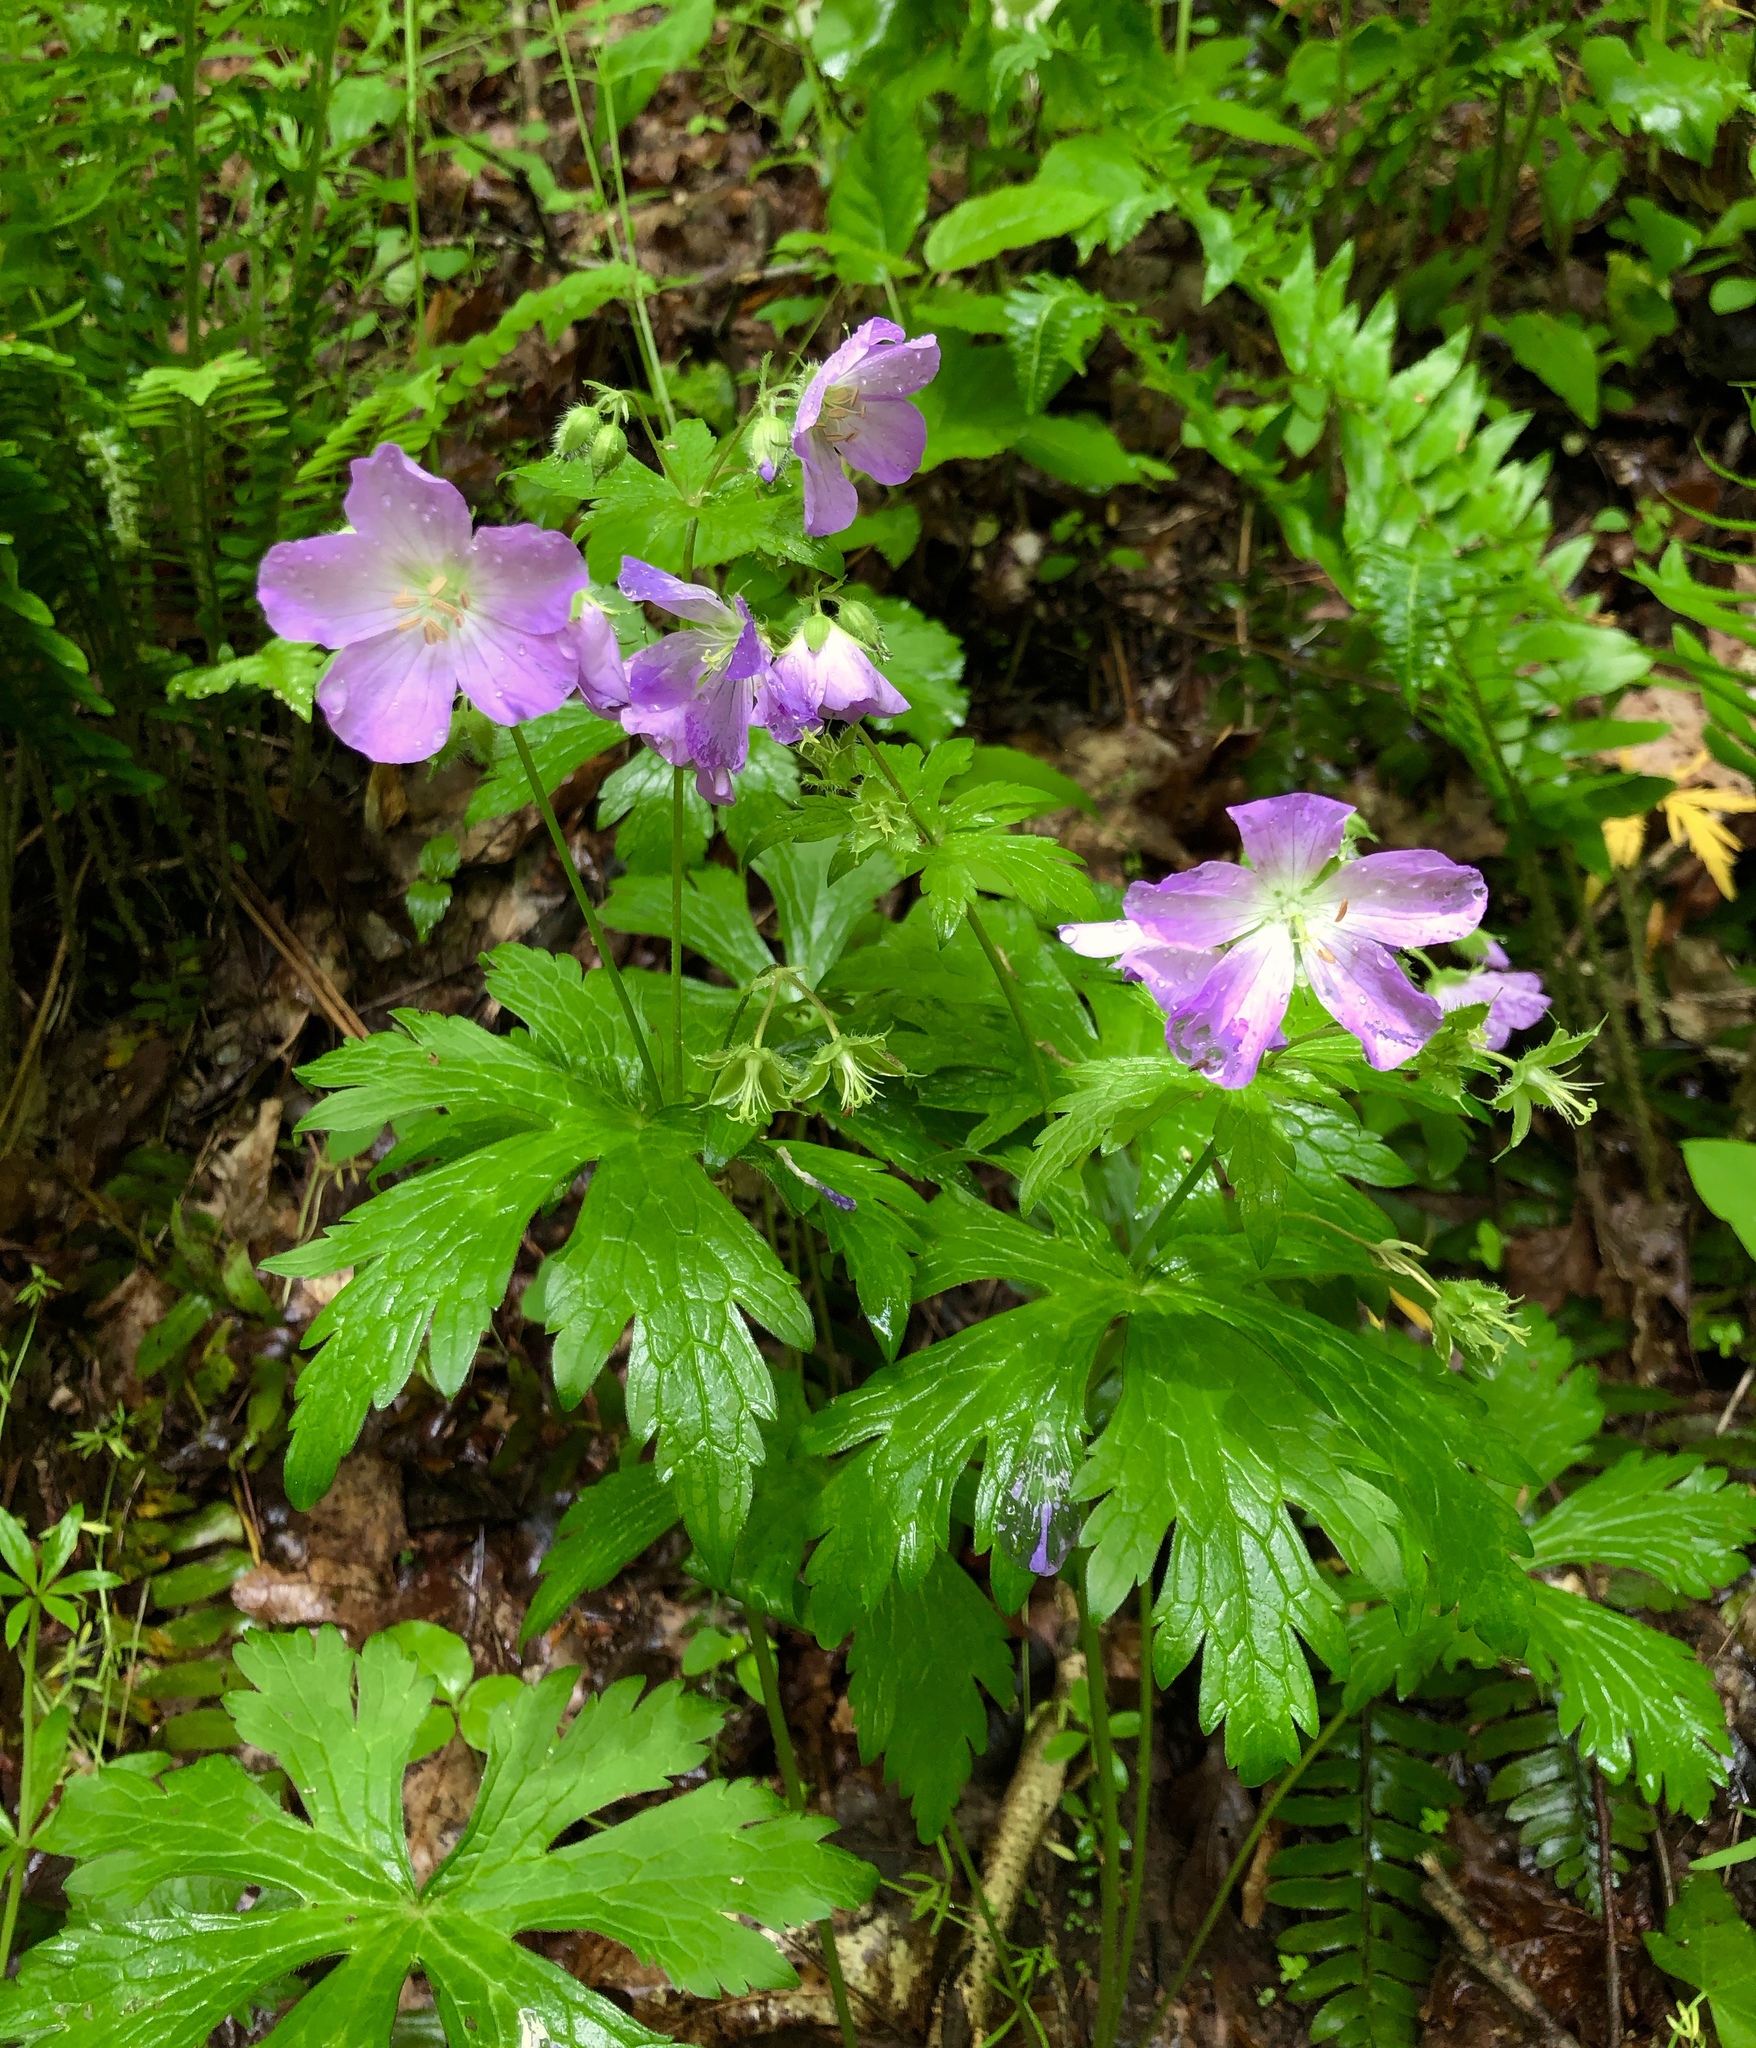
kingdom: Plantae
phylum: Tracheophyta
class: Magnoliopsida
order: Geraniales
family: Geraniaceae
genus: Geranium
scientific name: Geranium maculatum
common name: Spotted geranium
